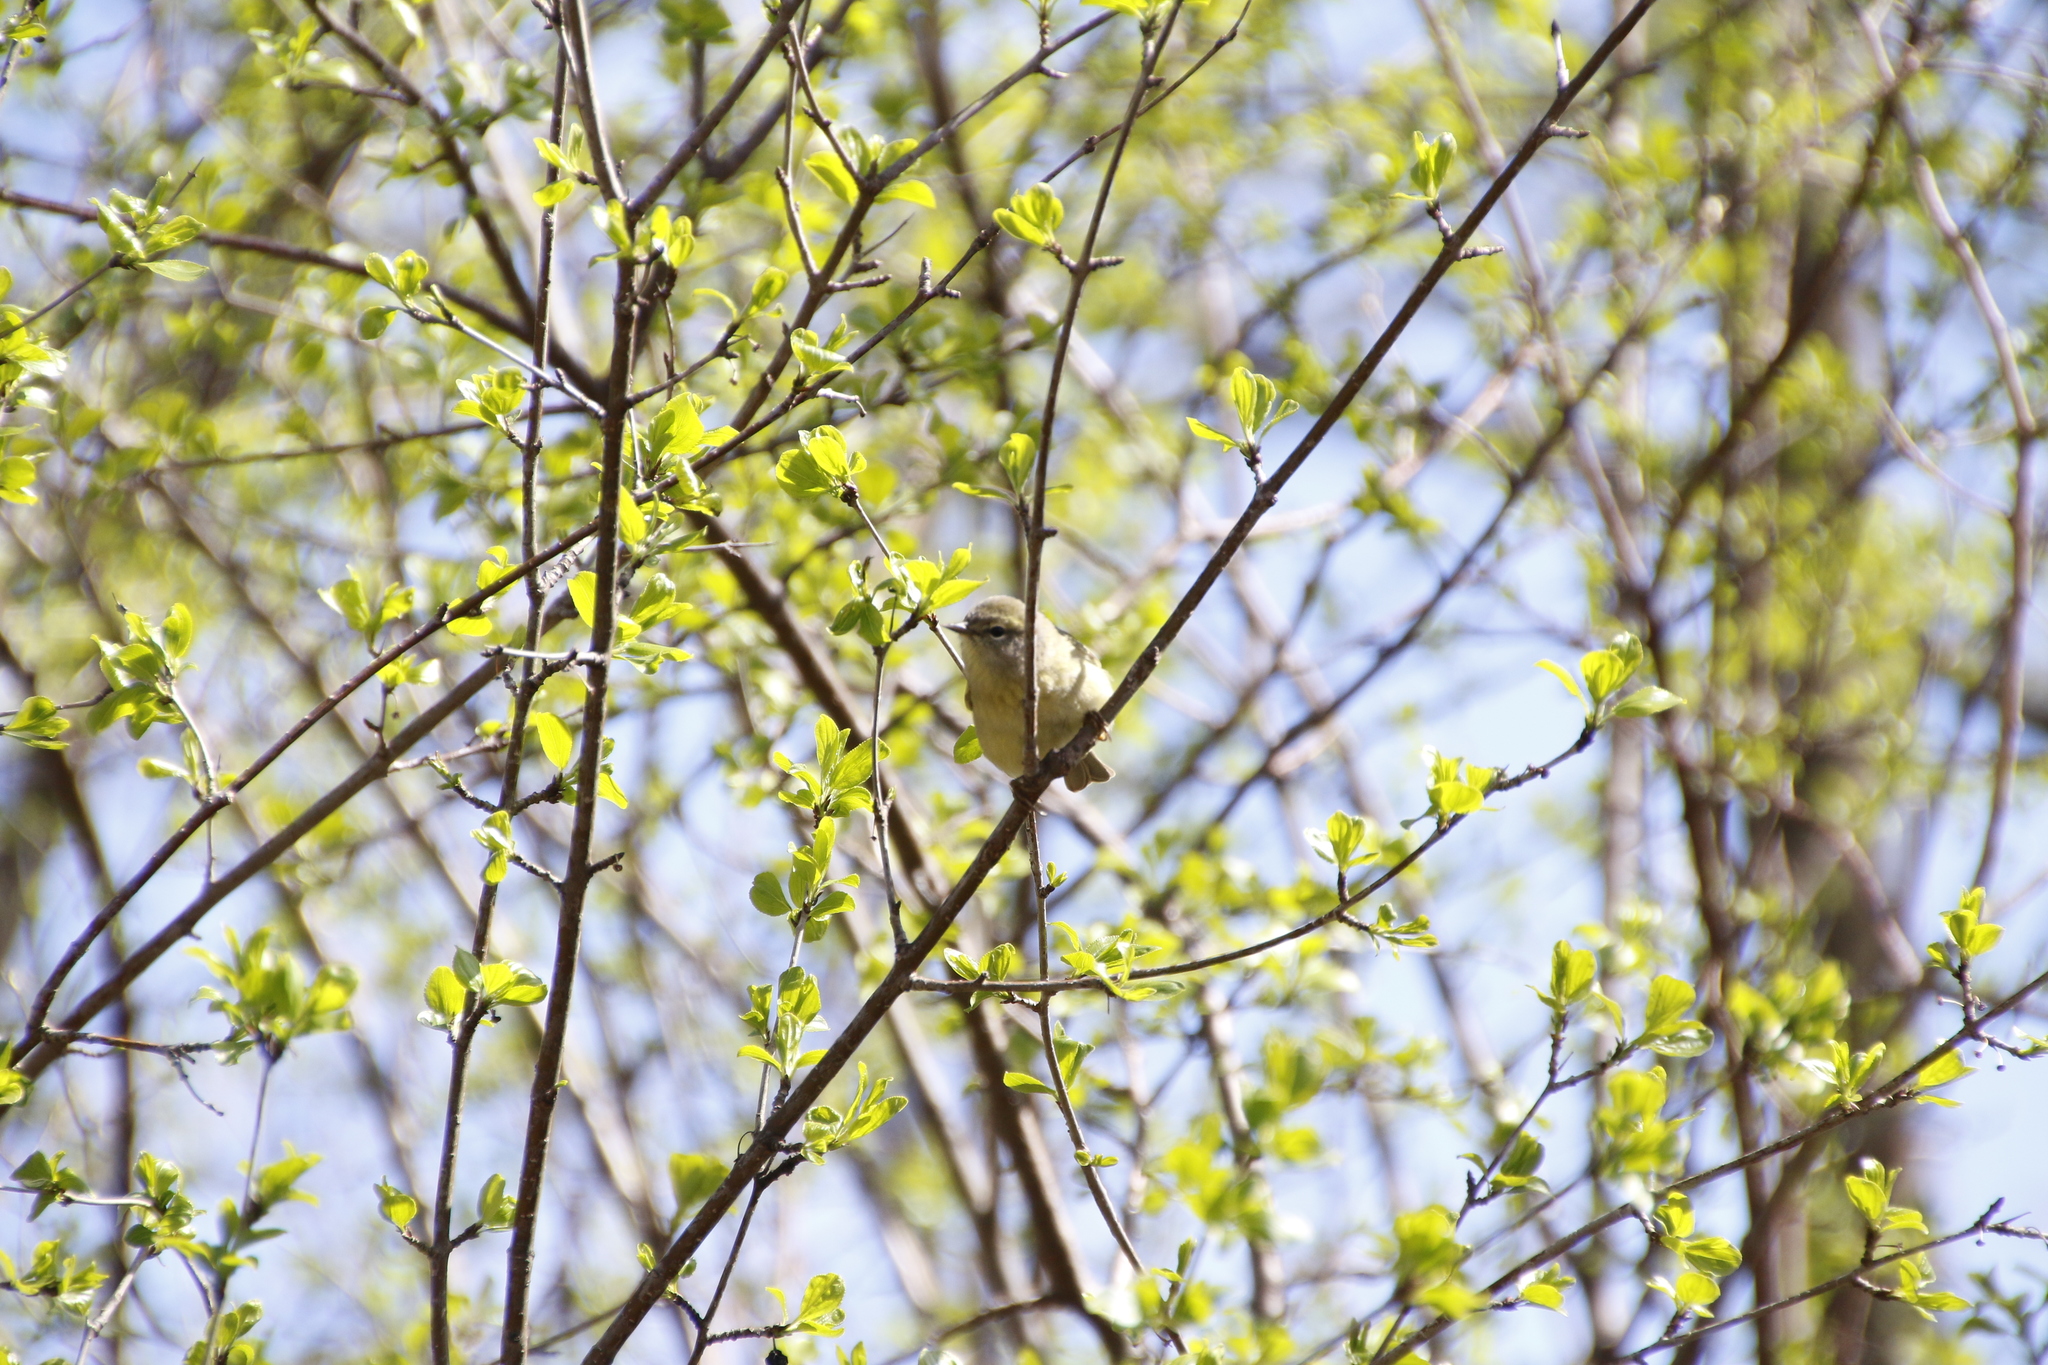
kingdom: Animalia
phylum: Chordata
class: Aves
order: Passeriformes
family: Parulidae
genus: Leiothlypis
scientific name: Leiothlypis celata
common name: Orange-crowned warbler
